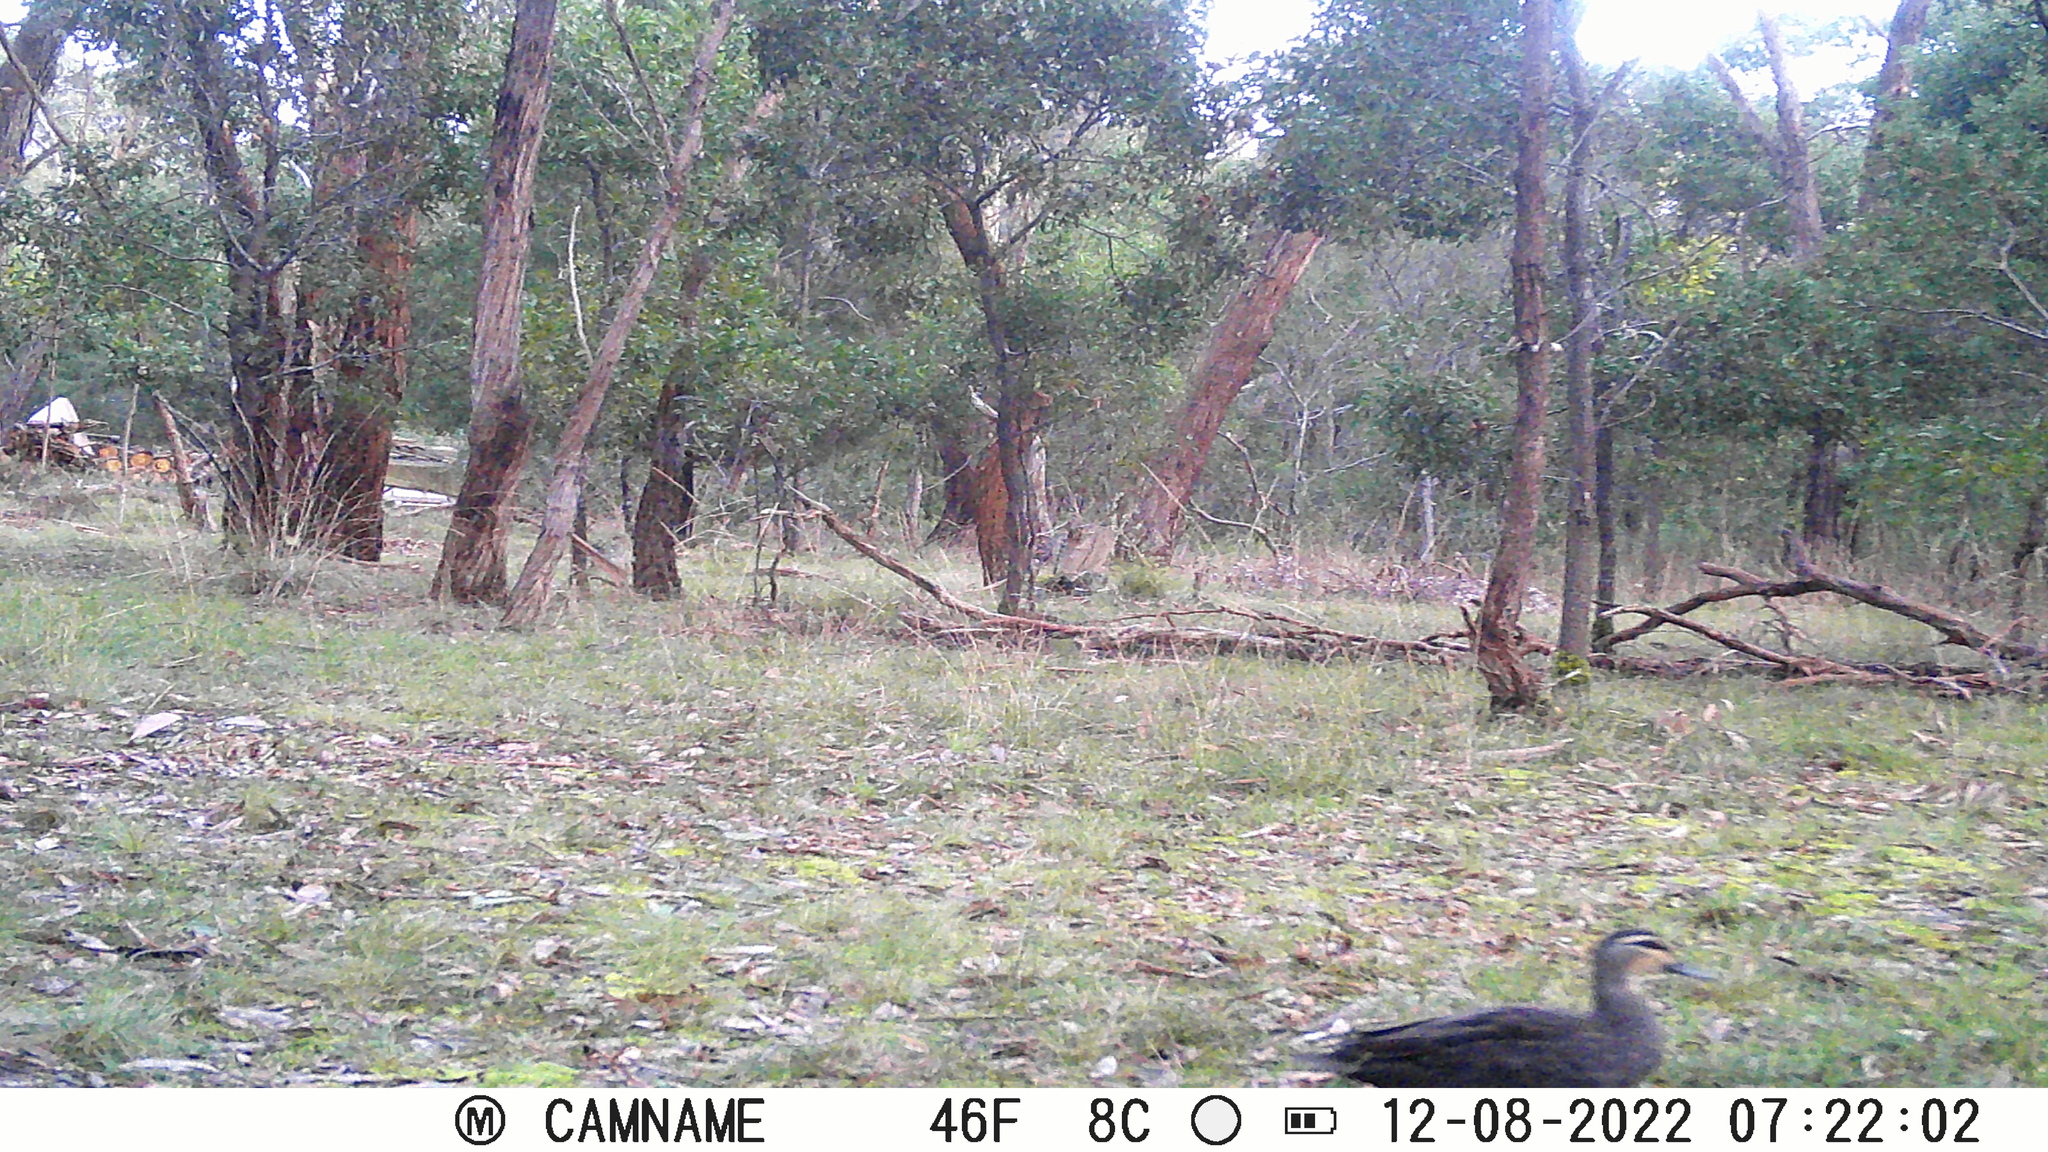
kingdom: Animalia
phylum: Chordata
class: Aves
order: Anseriformes
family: Anatidae
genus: Anas
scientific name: Anas superciliosa
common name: Pacific black duck
